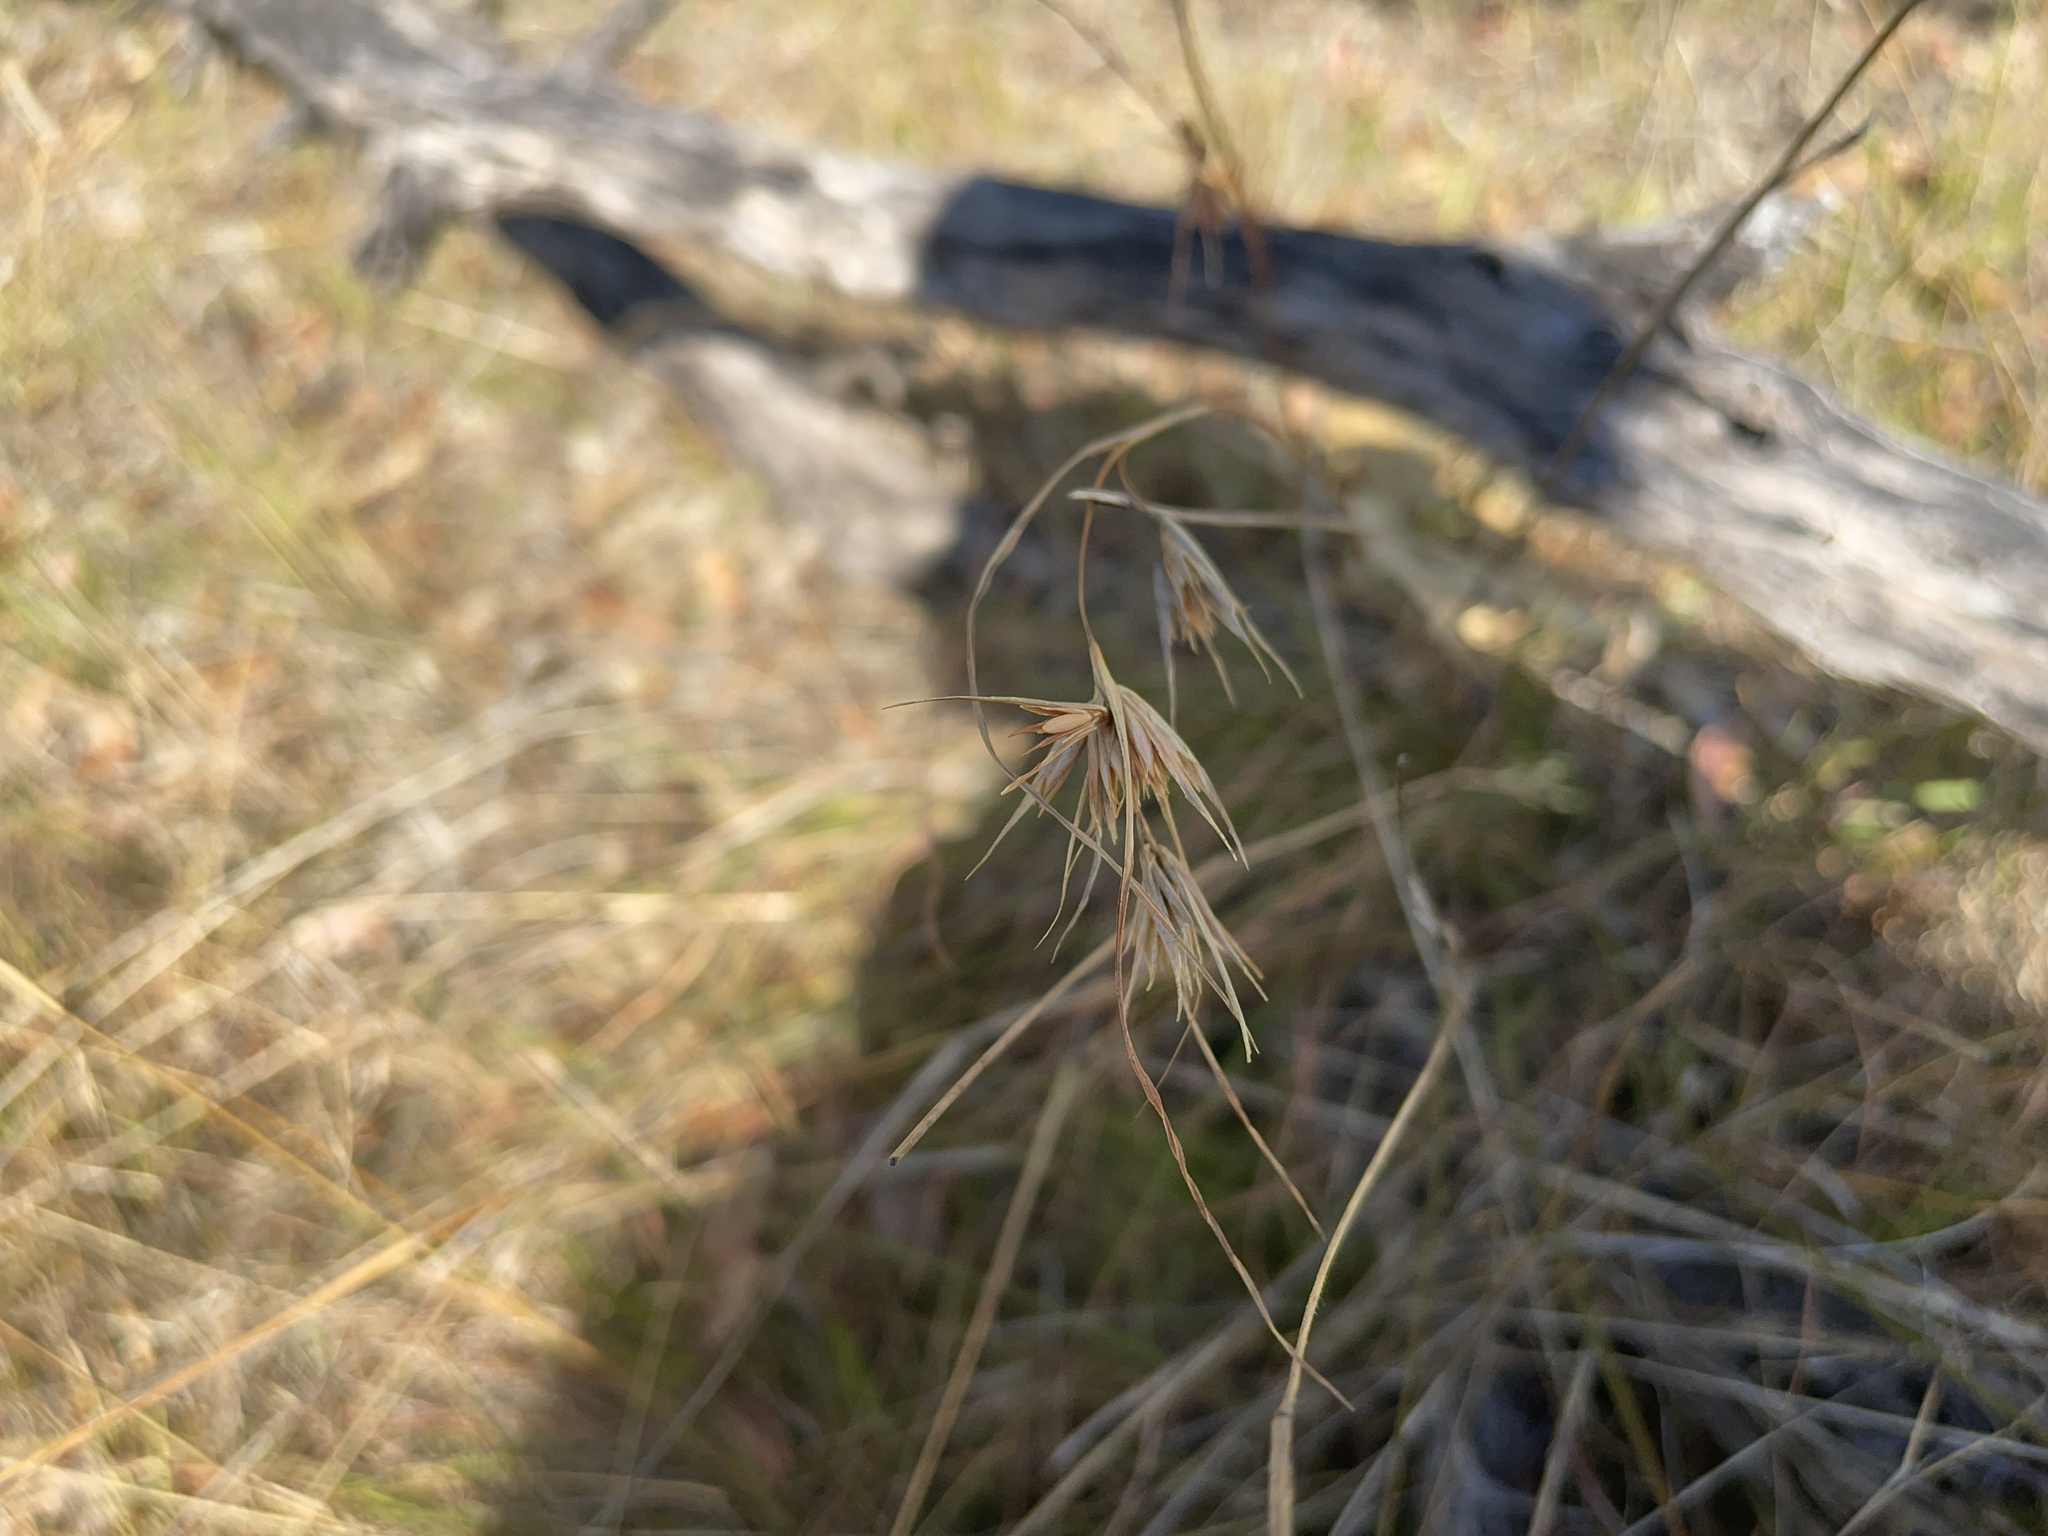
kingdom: Plantae
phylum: Tracheophyta
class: Liliopsida
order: Poales
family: Poaceae
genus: Themeda
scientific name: Themeda triandra
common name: Kangaroo grass
